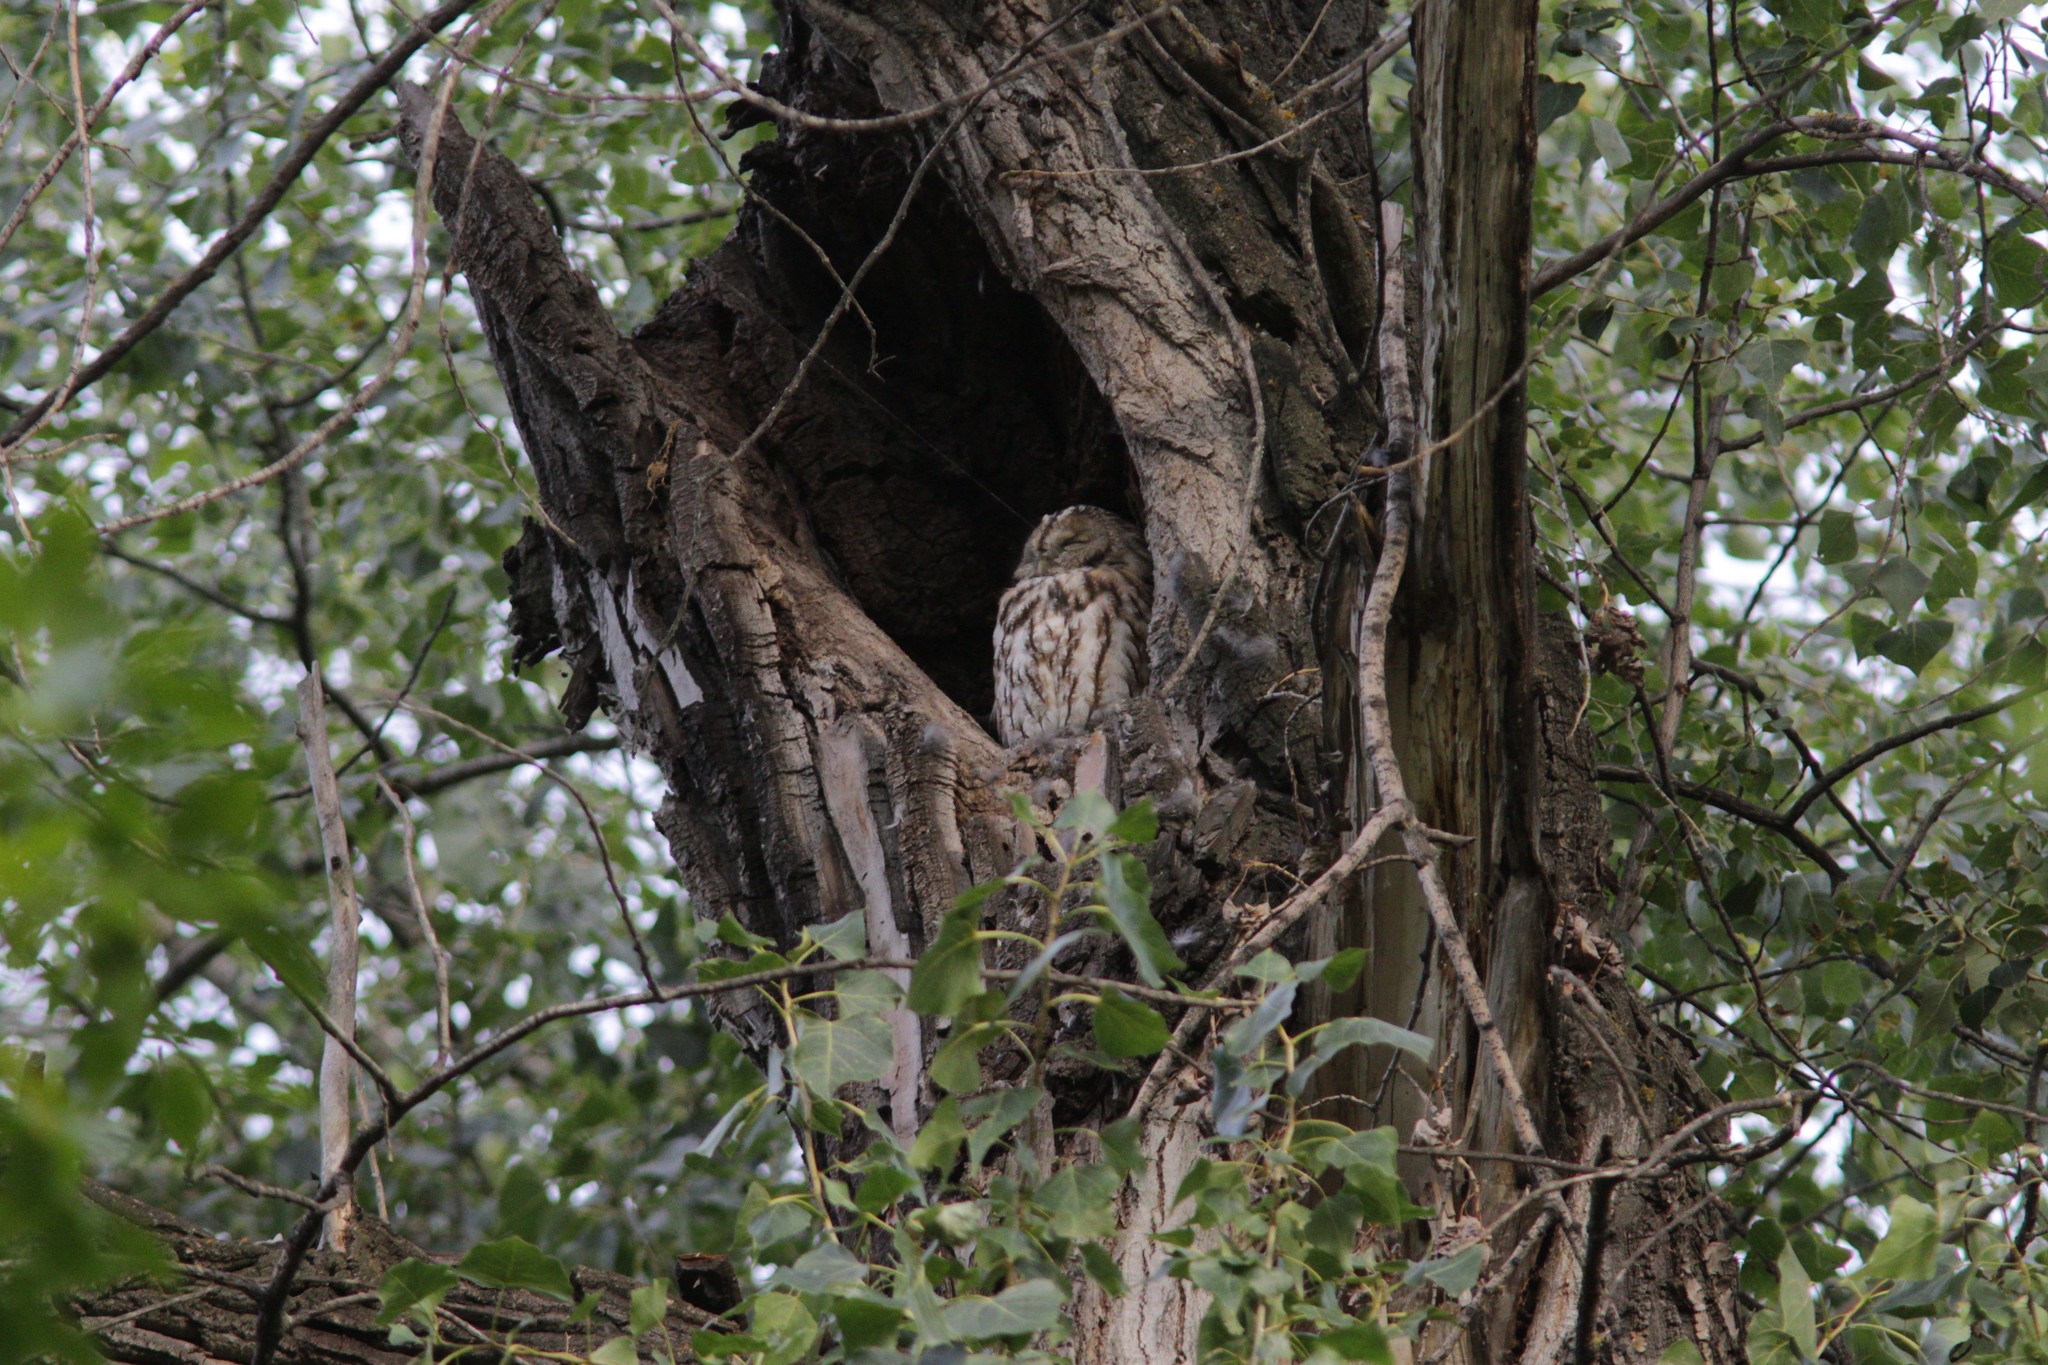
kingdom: Animalia
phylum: Chordata
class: Aves
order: Strigiformes
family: Strigidae
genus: Strix
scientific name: Strix aluco
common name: Tawny owl
